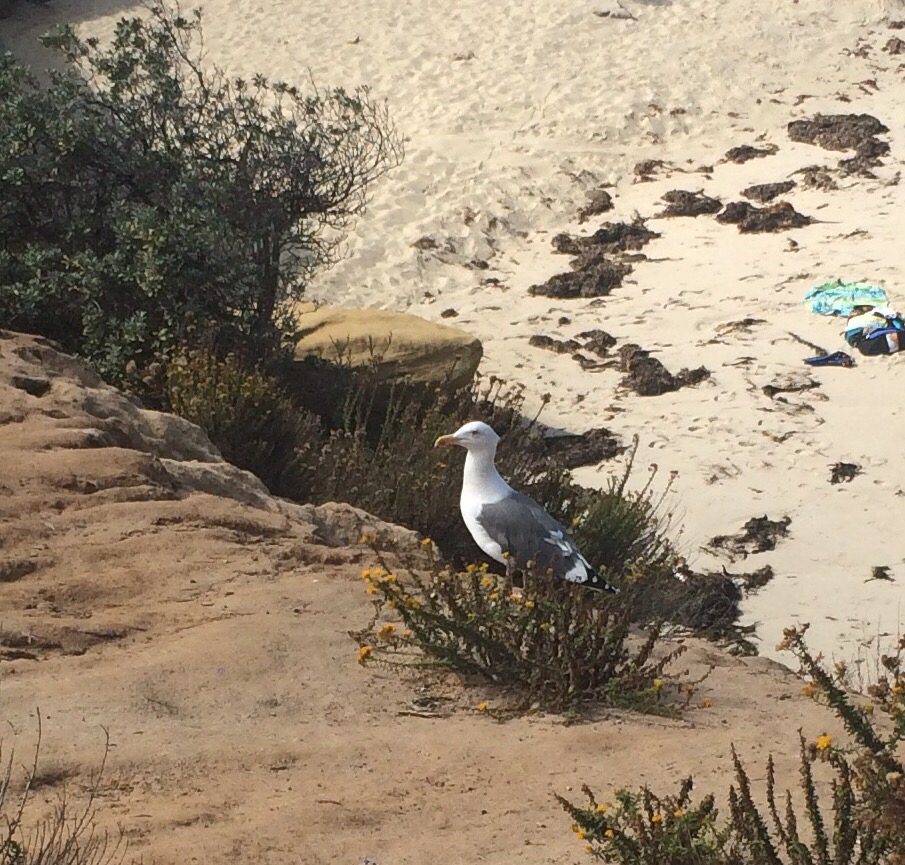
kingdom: Animalia
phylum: Chordata
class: Aves
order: Charadriiformes
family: Laridae
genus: Larus
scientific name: Larus occidentalis
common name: Western gull
